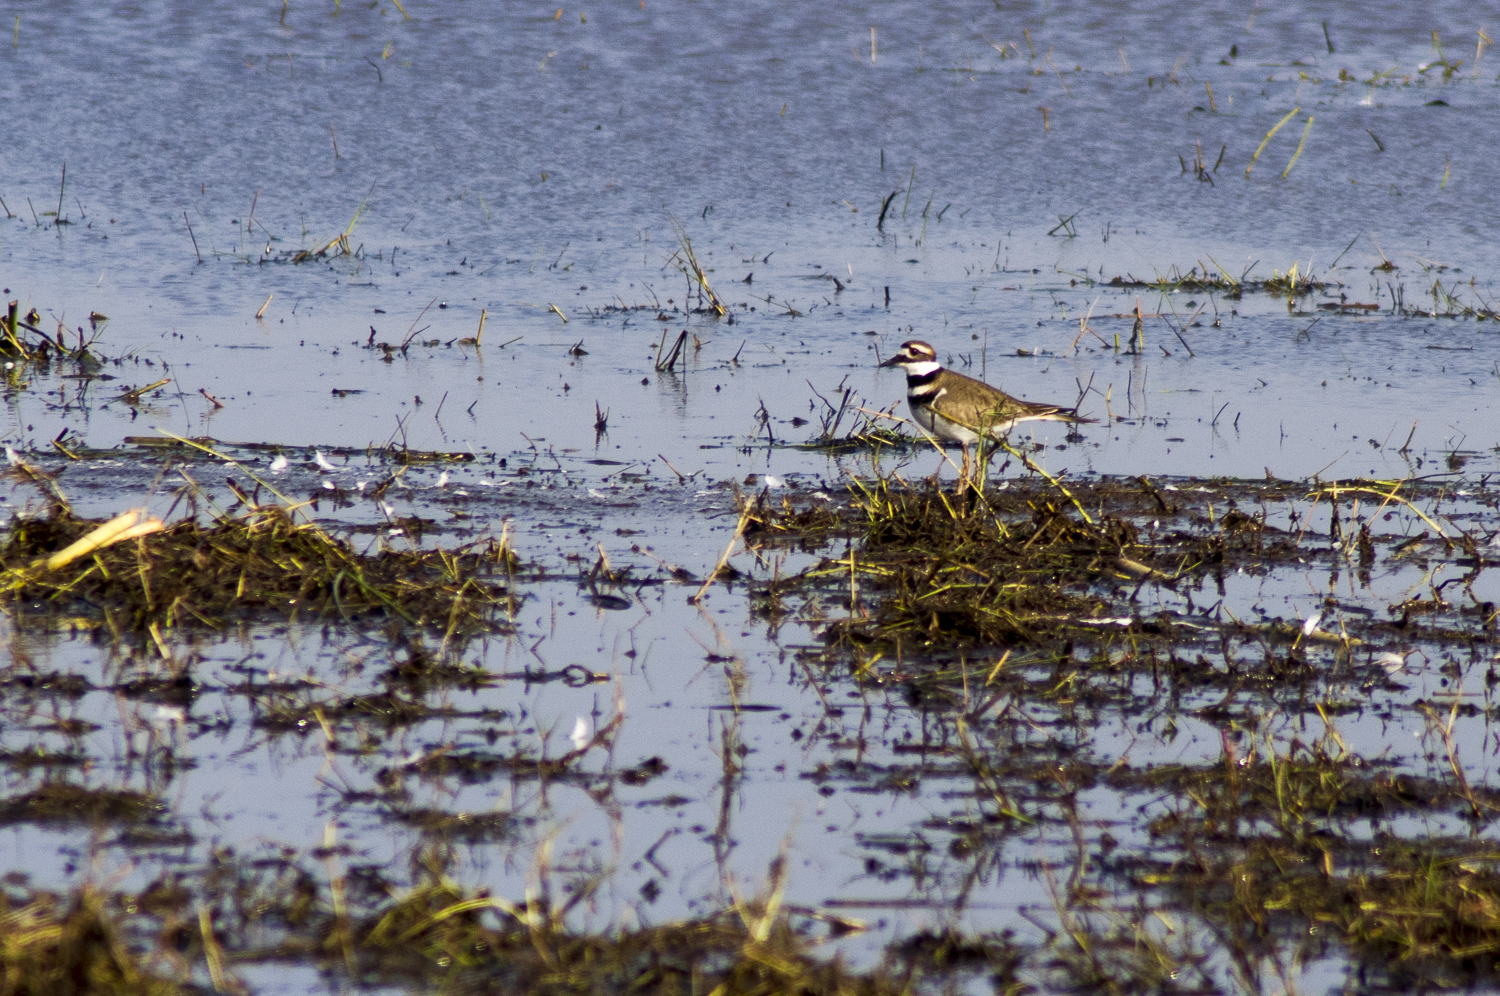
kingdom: Animalia
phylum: Chordata
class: Aves
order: Charadriiformes
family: Charadriidae
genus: Charadrius
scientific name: Charadrius vociferus
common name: Killdeer
